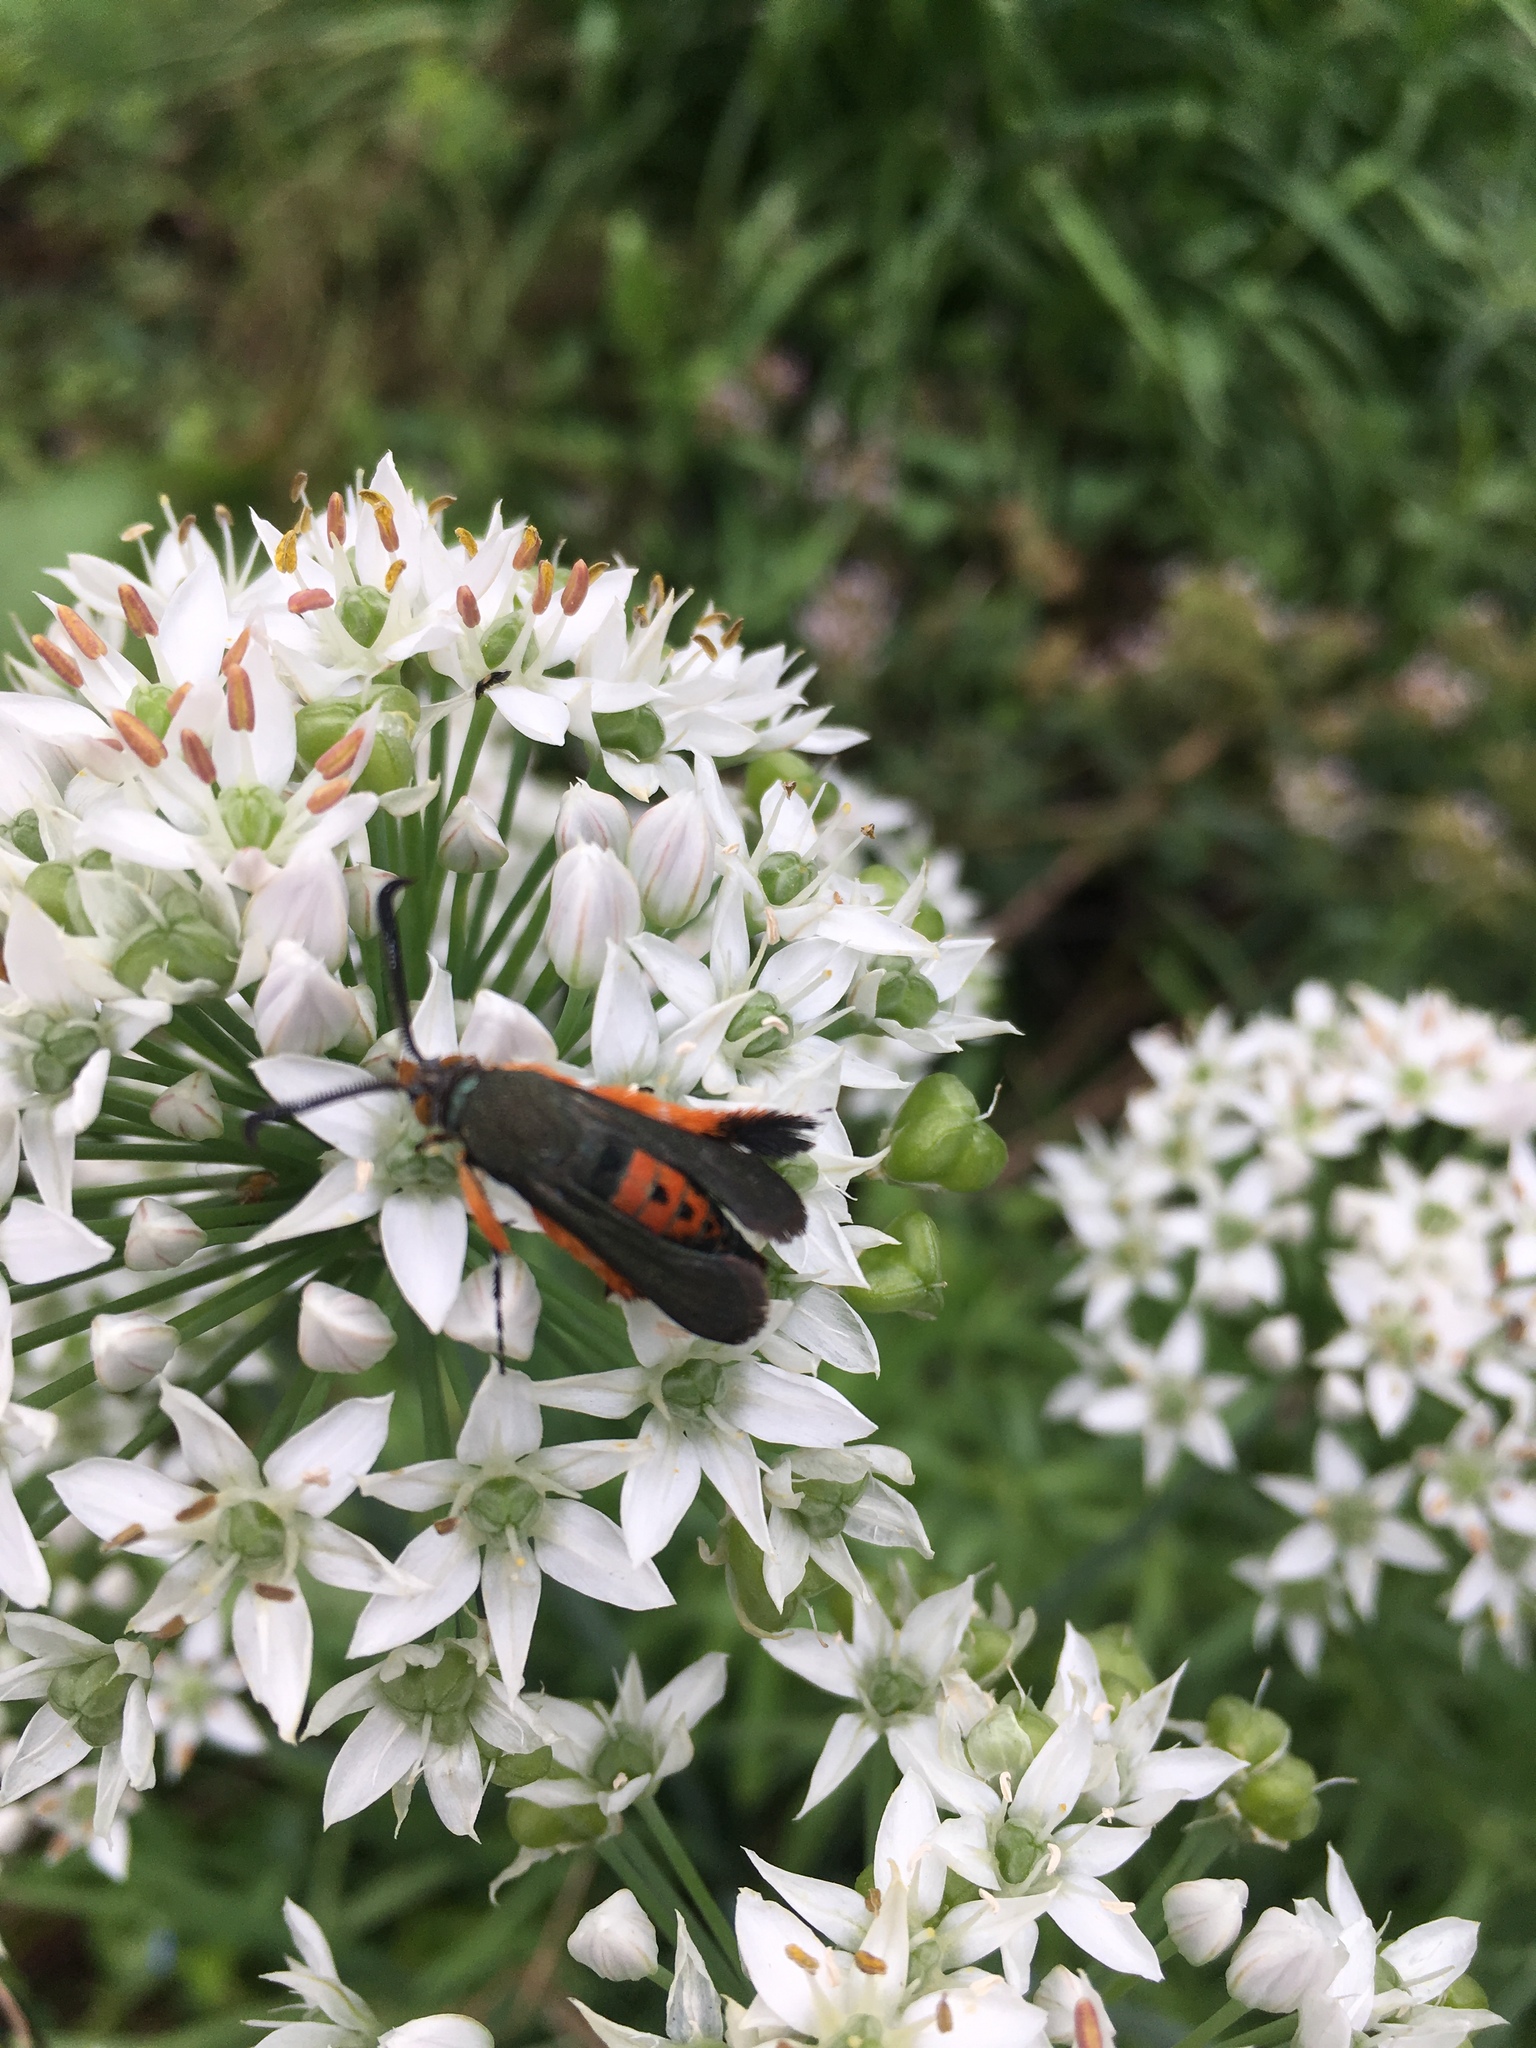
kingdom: Animalia
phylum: Arthropoda
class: Insecta
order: Lepidoptera
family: Sesiidae
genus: Eichlinia
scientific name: Eichlinia cucurbitae
